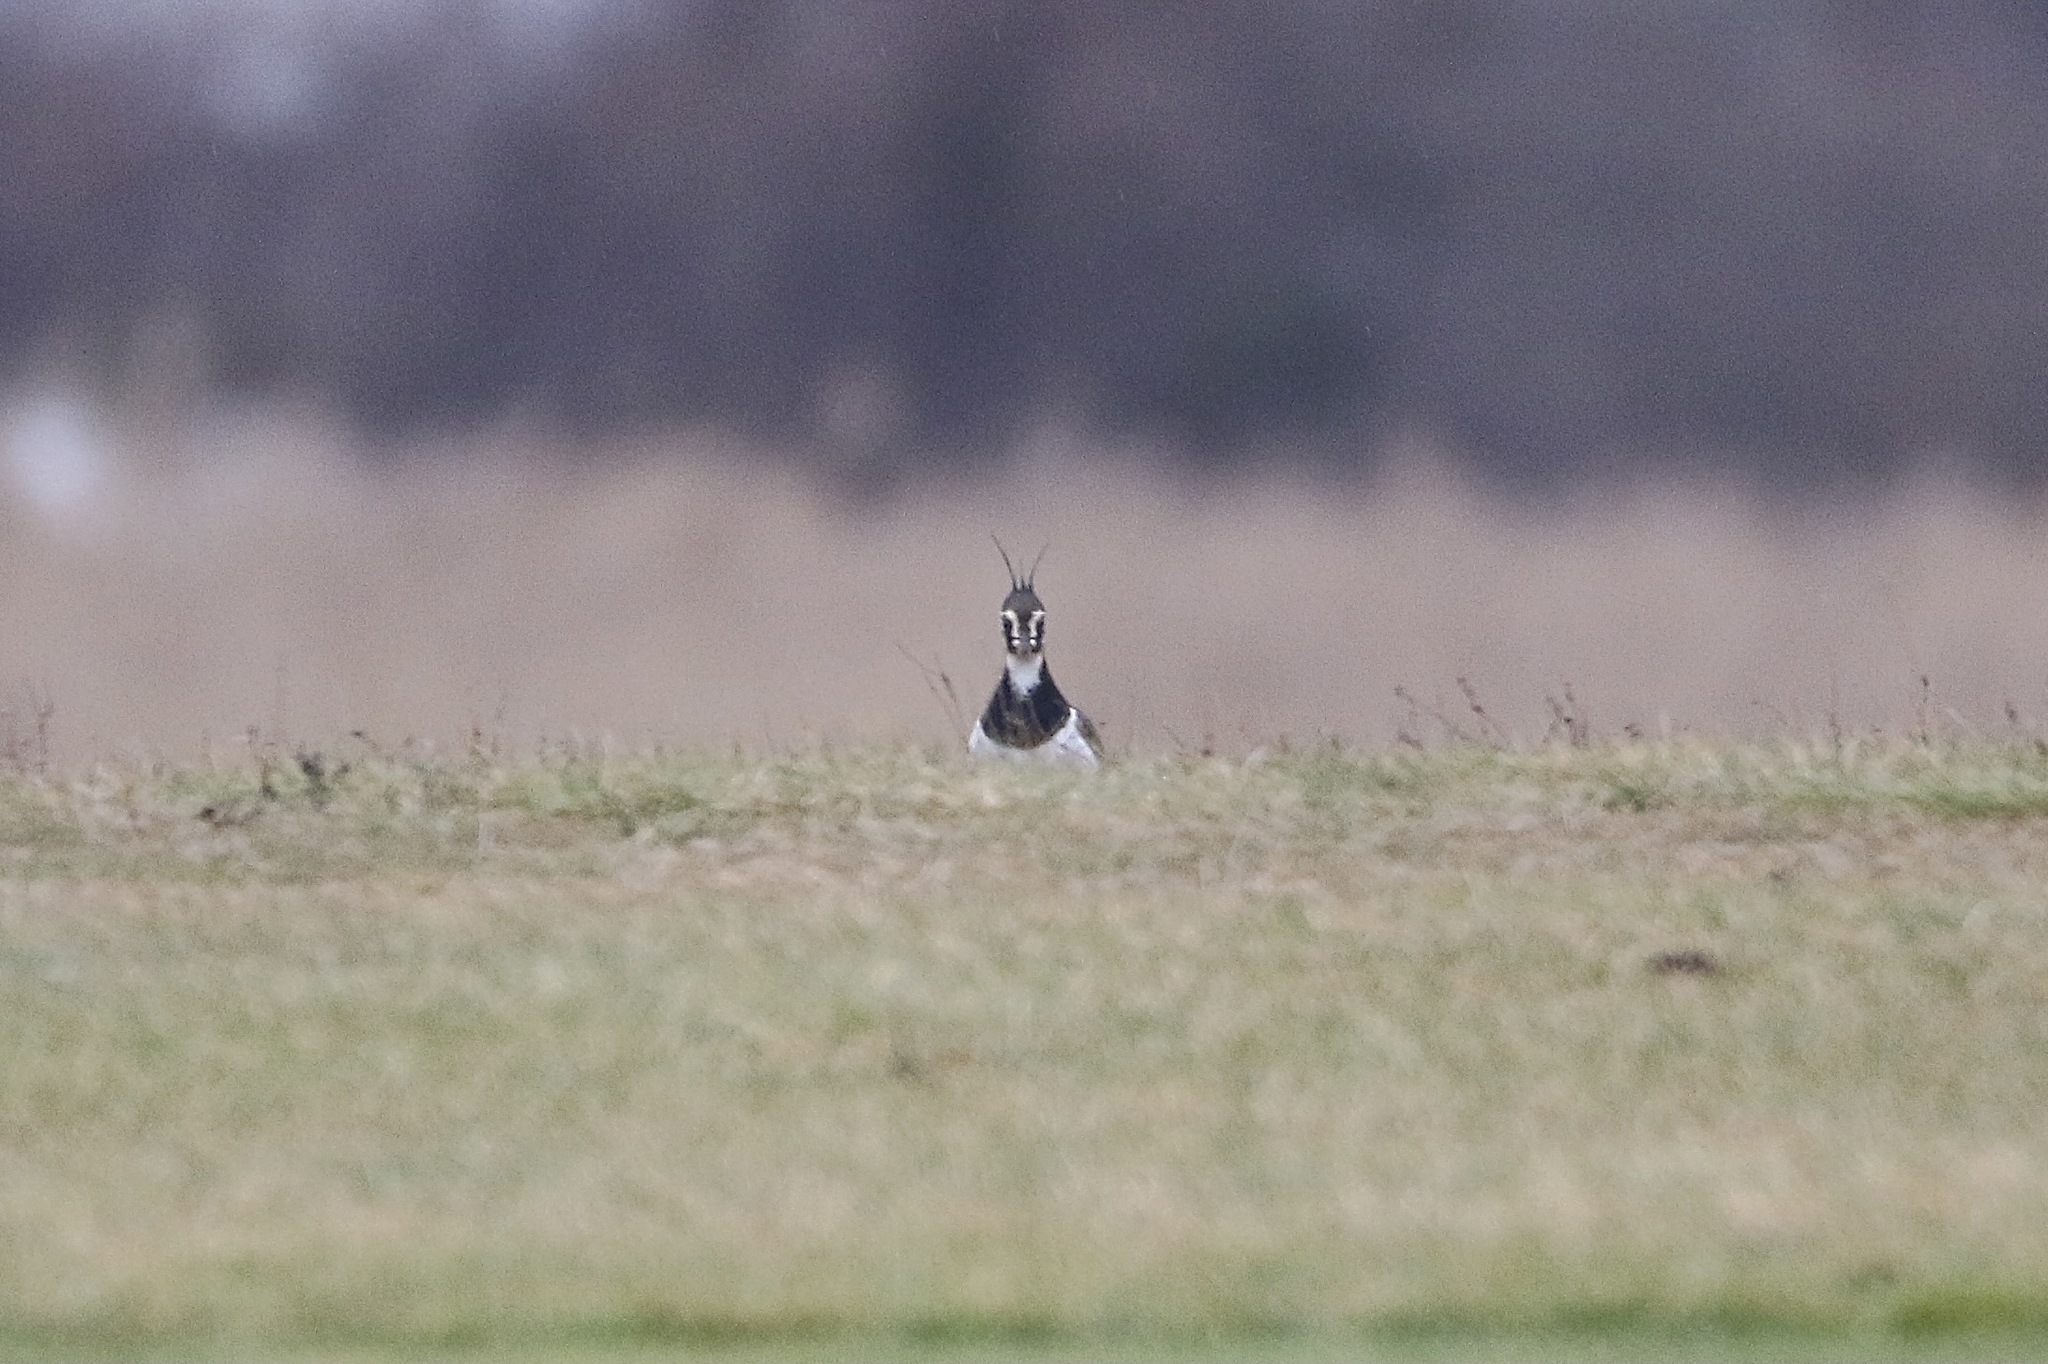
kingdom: Animalia
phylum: Chordata
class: Aves
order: Charadriiformes
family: Charadriidae
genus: Vanellus
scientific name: Vanellus vanellus
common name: Northern lapwing
